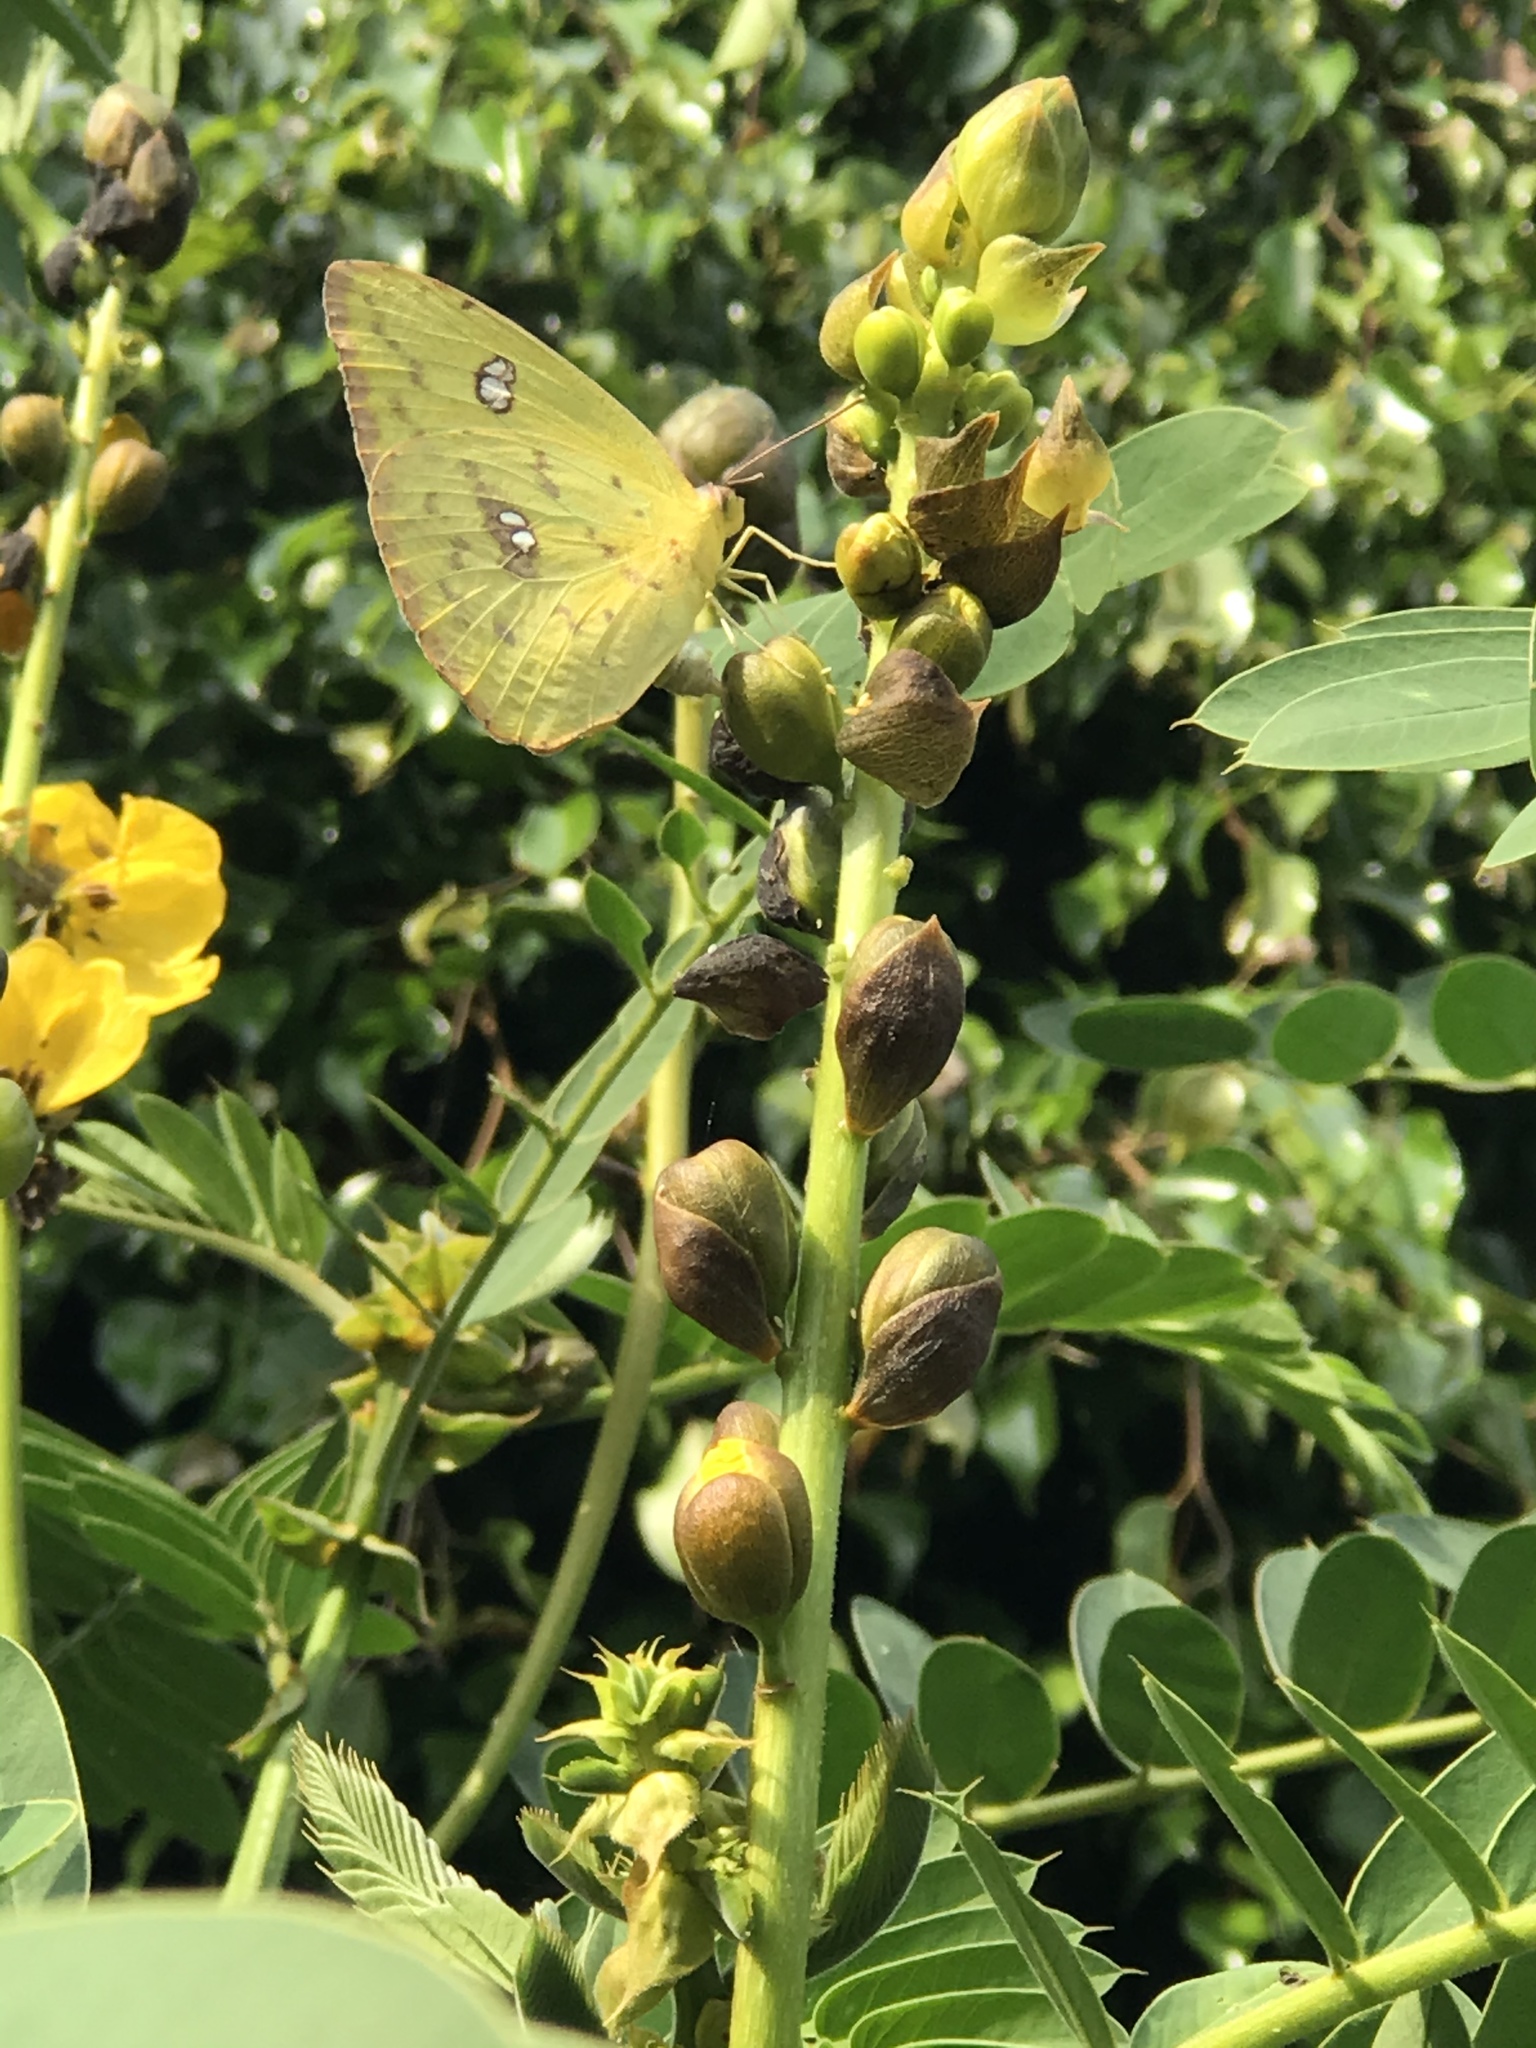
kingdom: Animalia
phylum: Arthropoda
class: Insecta
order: Lepidoptera
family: Pieridae
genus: Phoebis
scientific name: Phoebis sennae
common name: Cloudless sulphur
